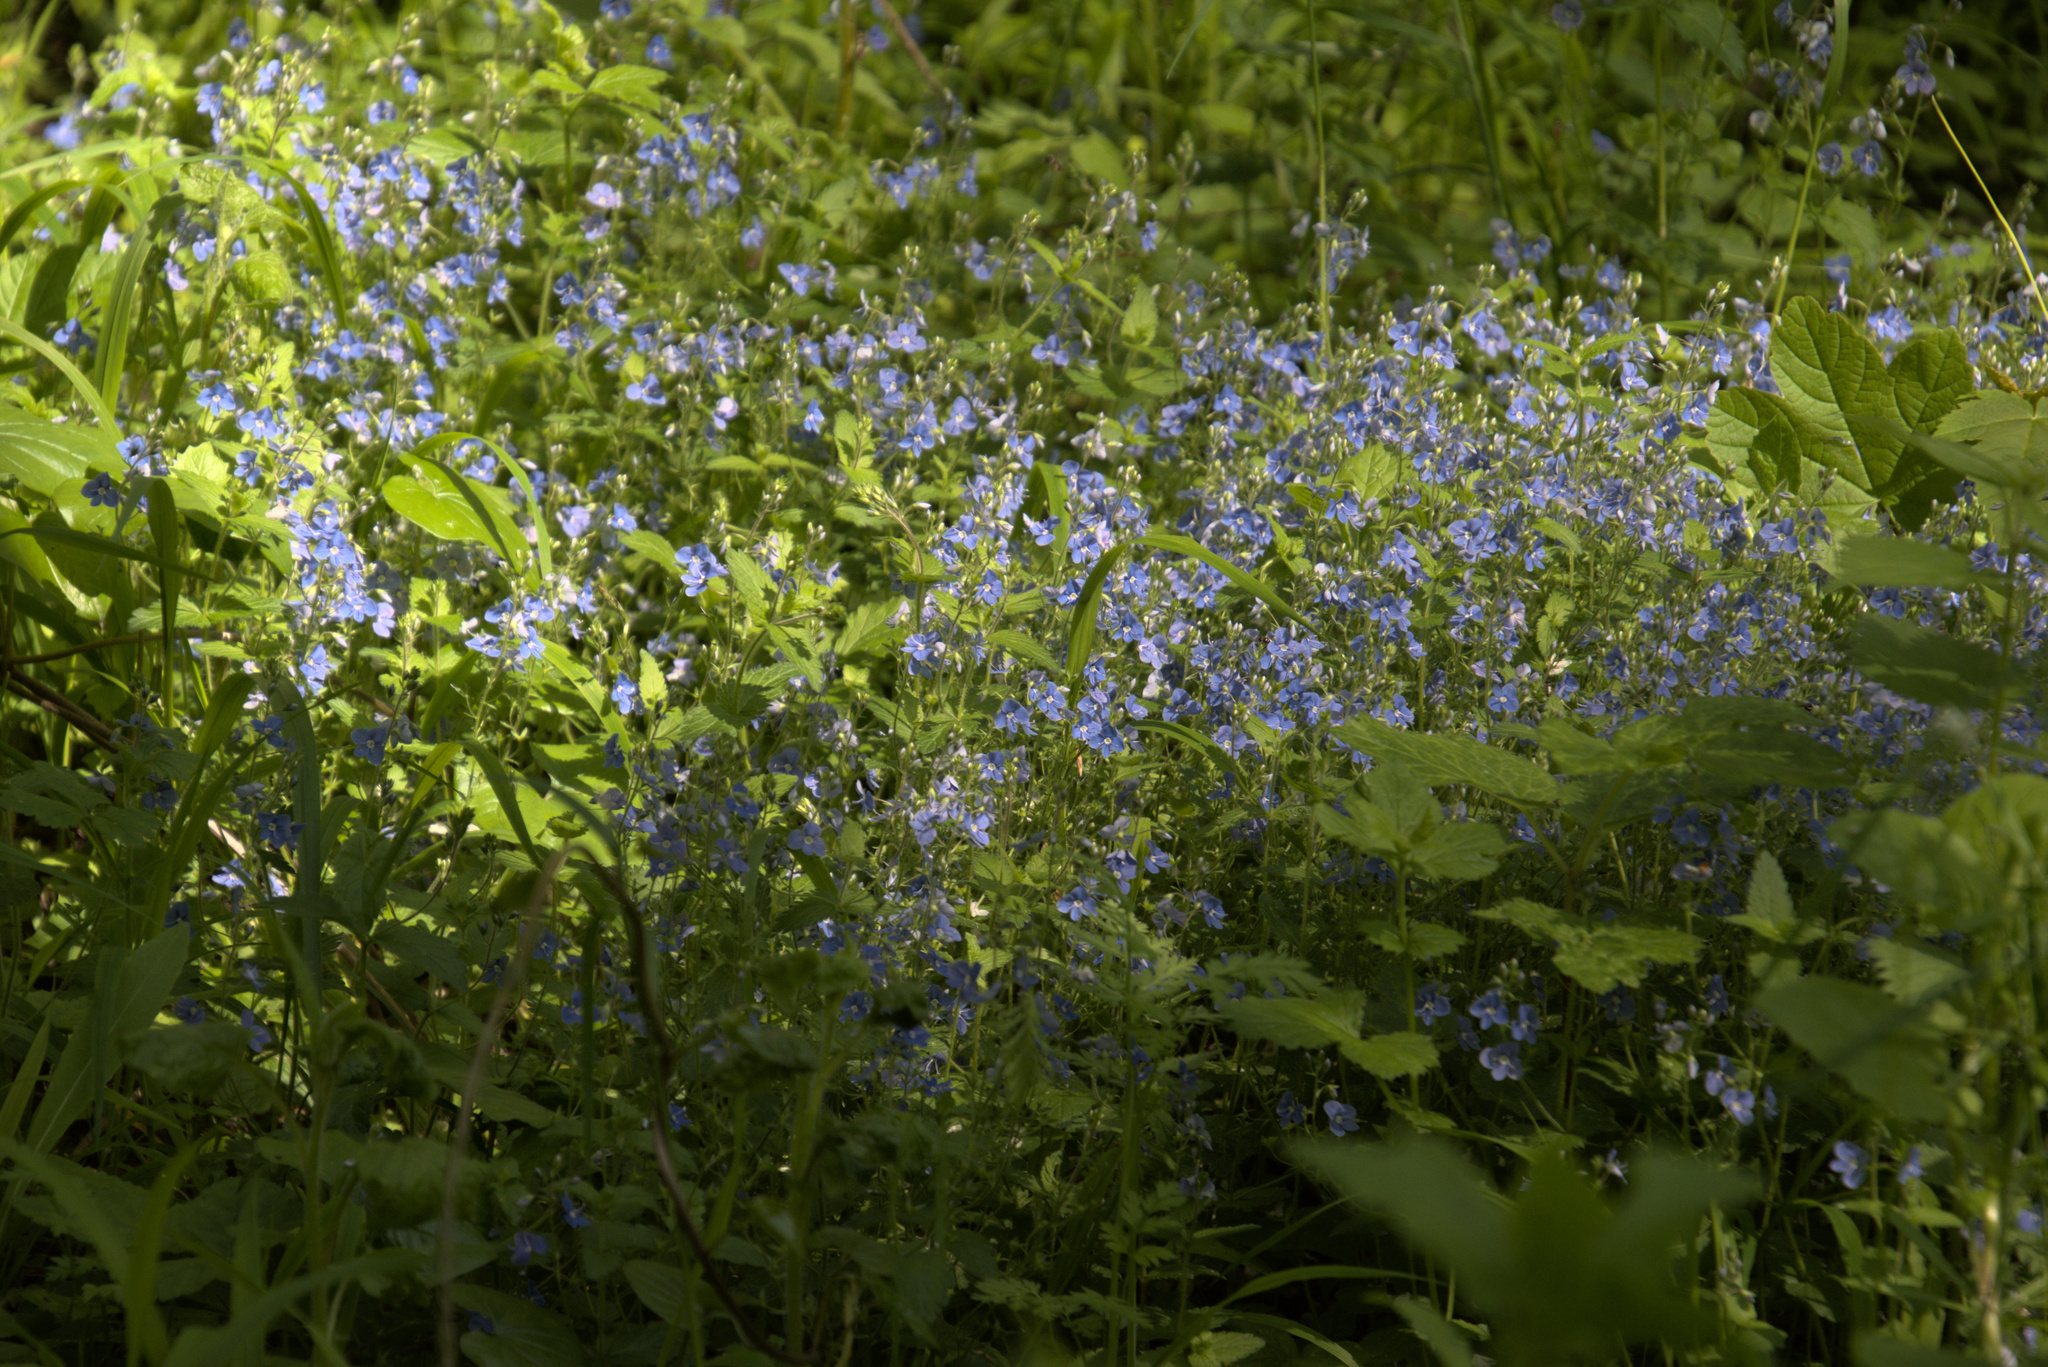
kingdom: Plantae
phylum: Tracheophyta
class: Magnoliopsida
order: Lamiales
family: Plantaginaceae
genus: Veronica
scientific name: Veronica chamaedrys
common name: Germander speedwell
